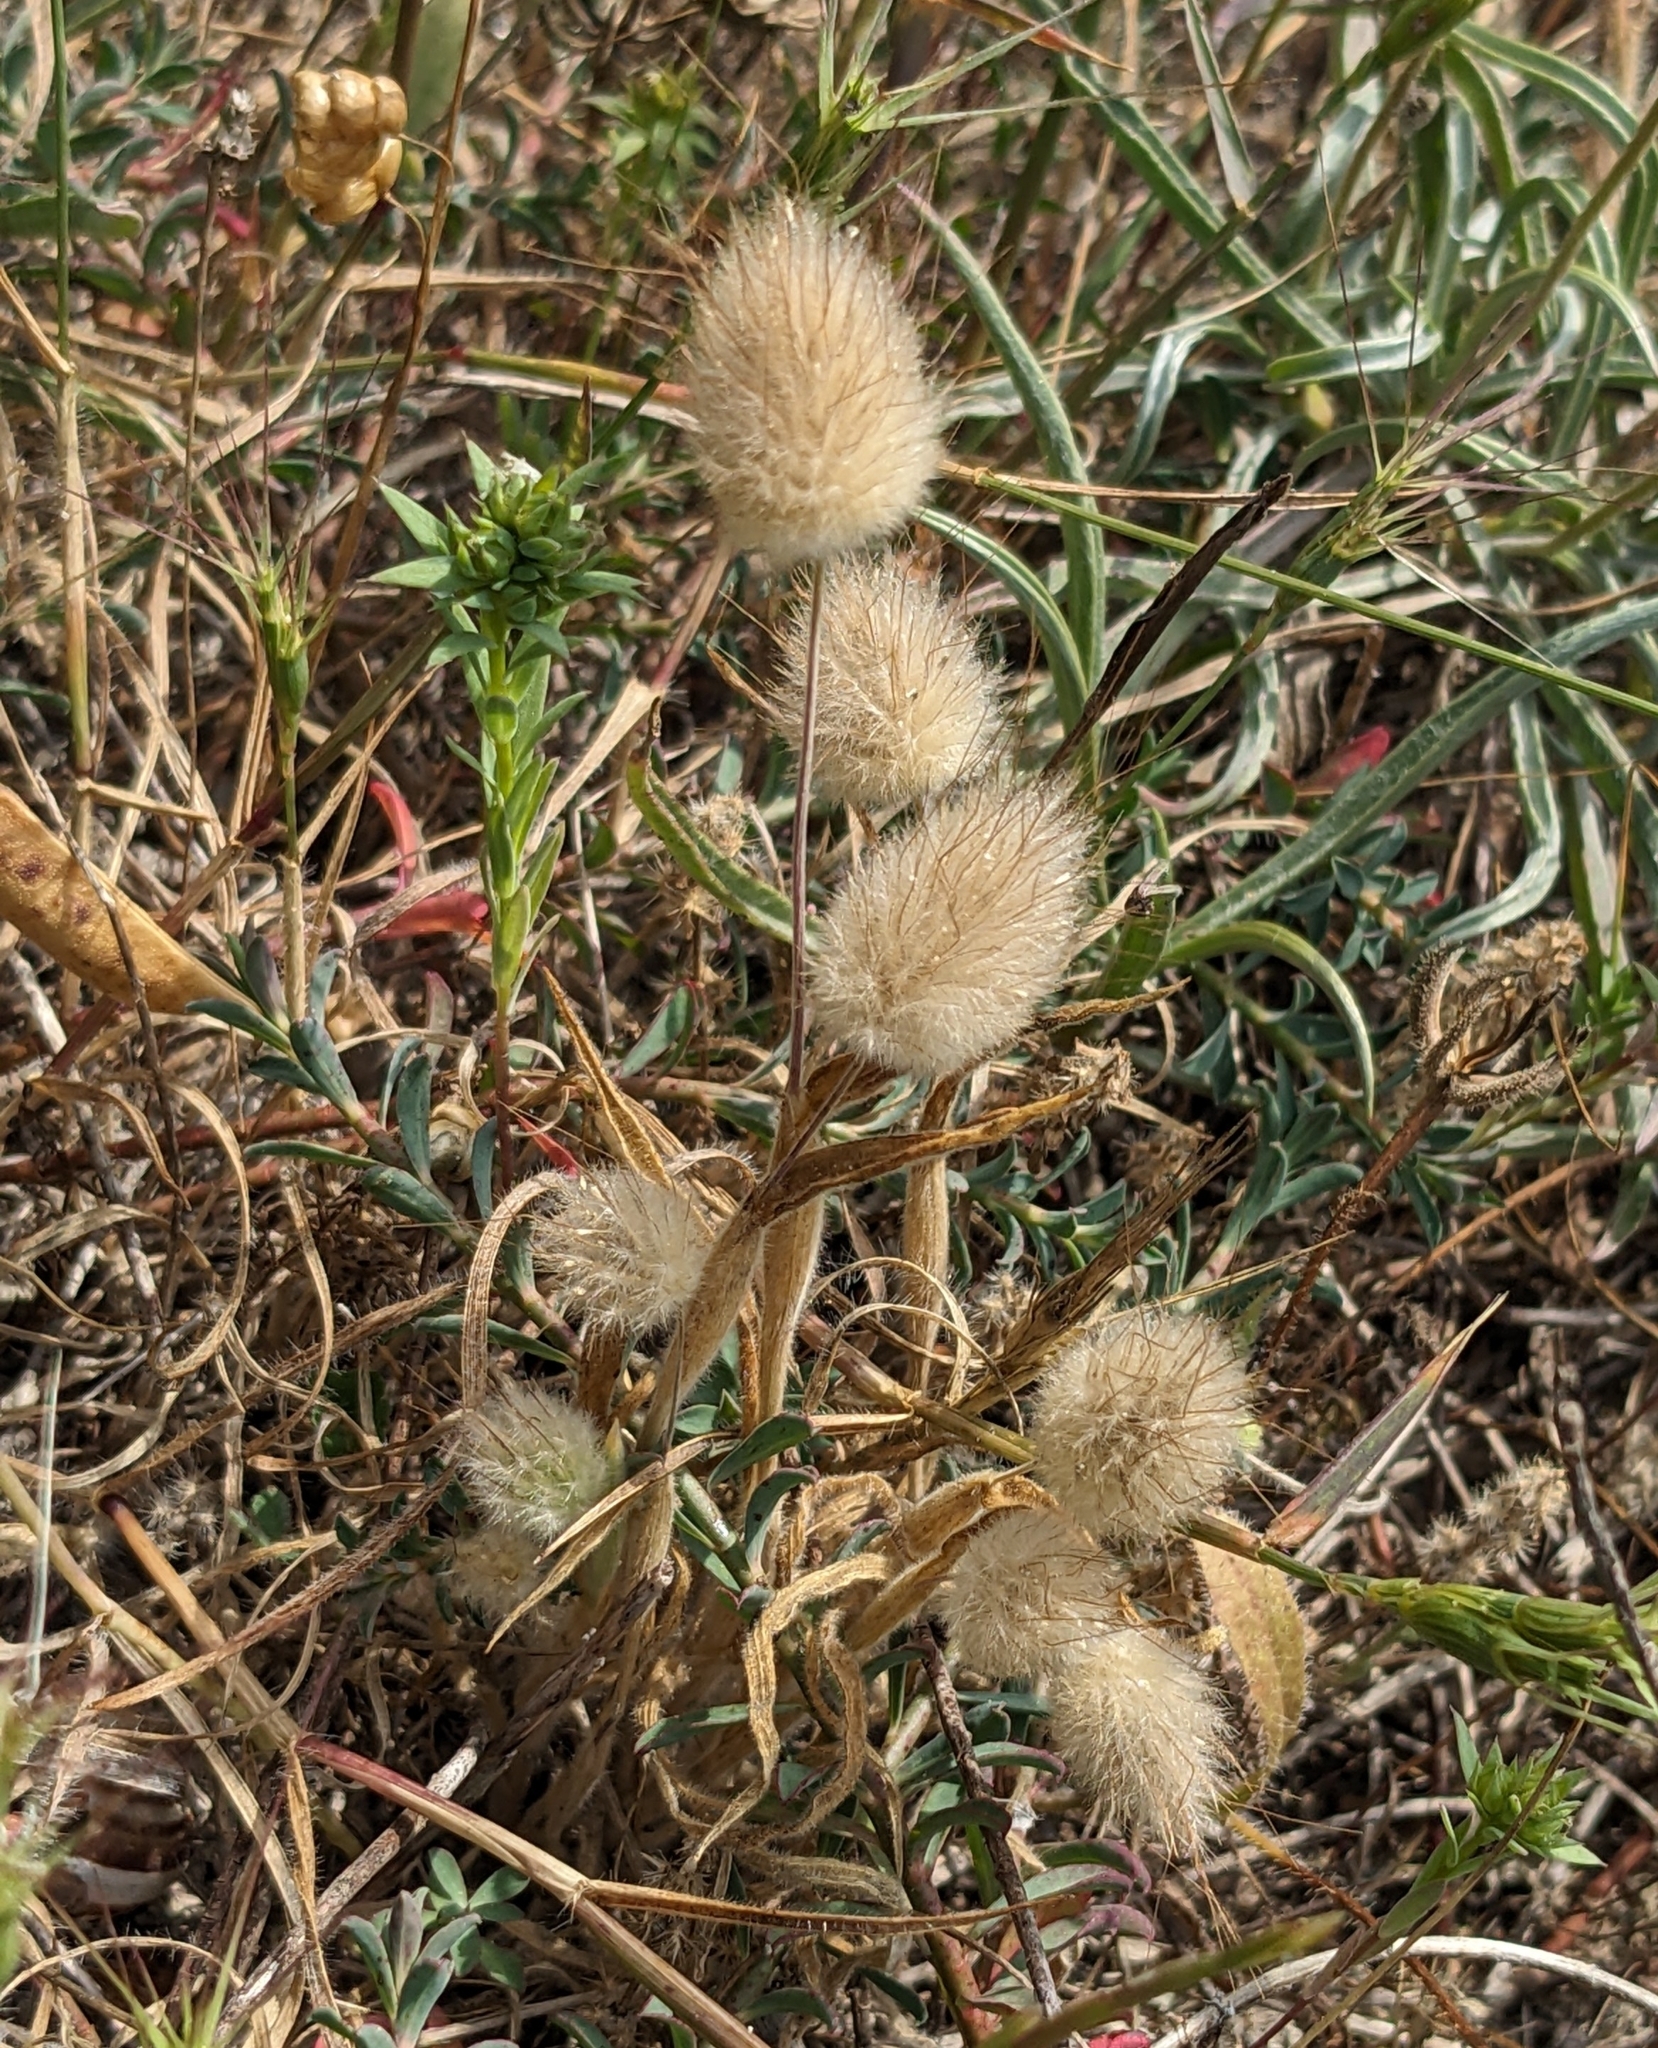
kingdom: Plantae
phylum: Tracheophyta
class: Liliopsida
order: Poales
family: Poaceae
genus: Lagurus
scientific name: Lagurus ovatus
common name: Hare's-tail
